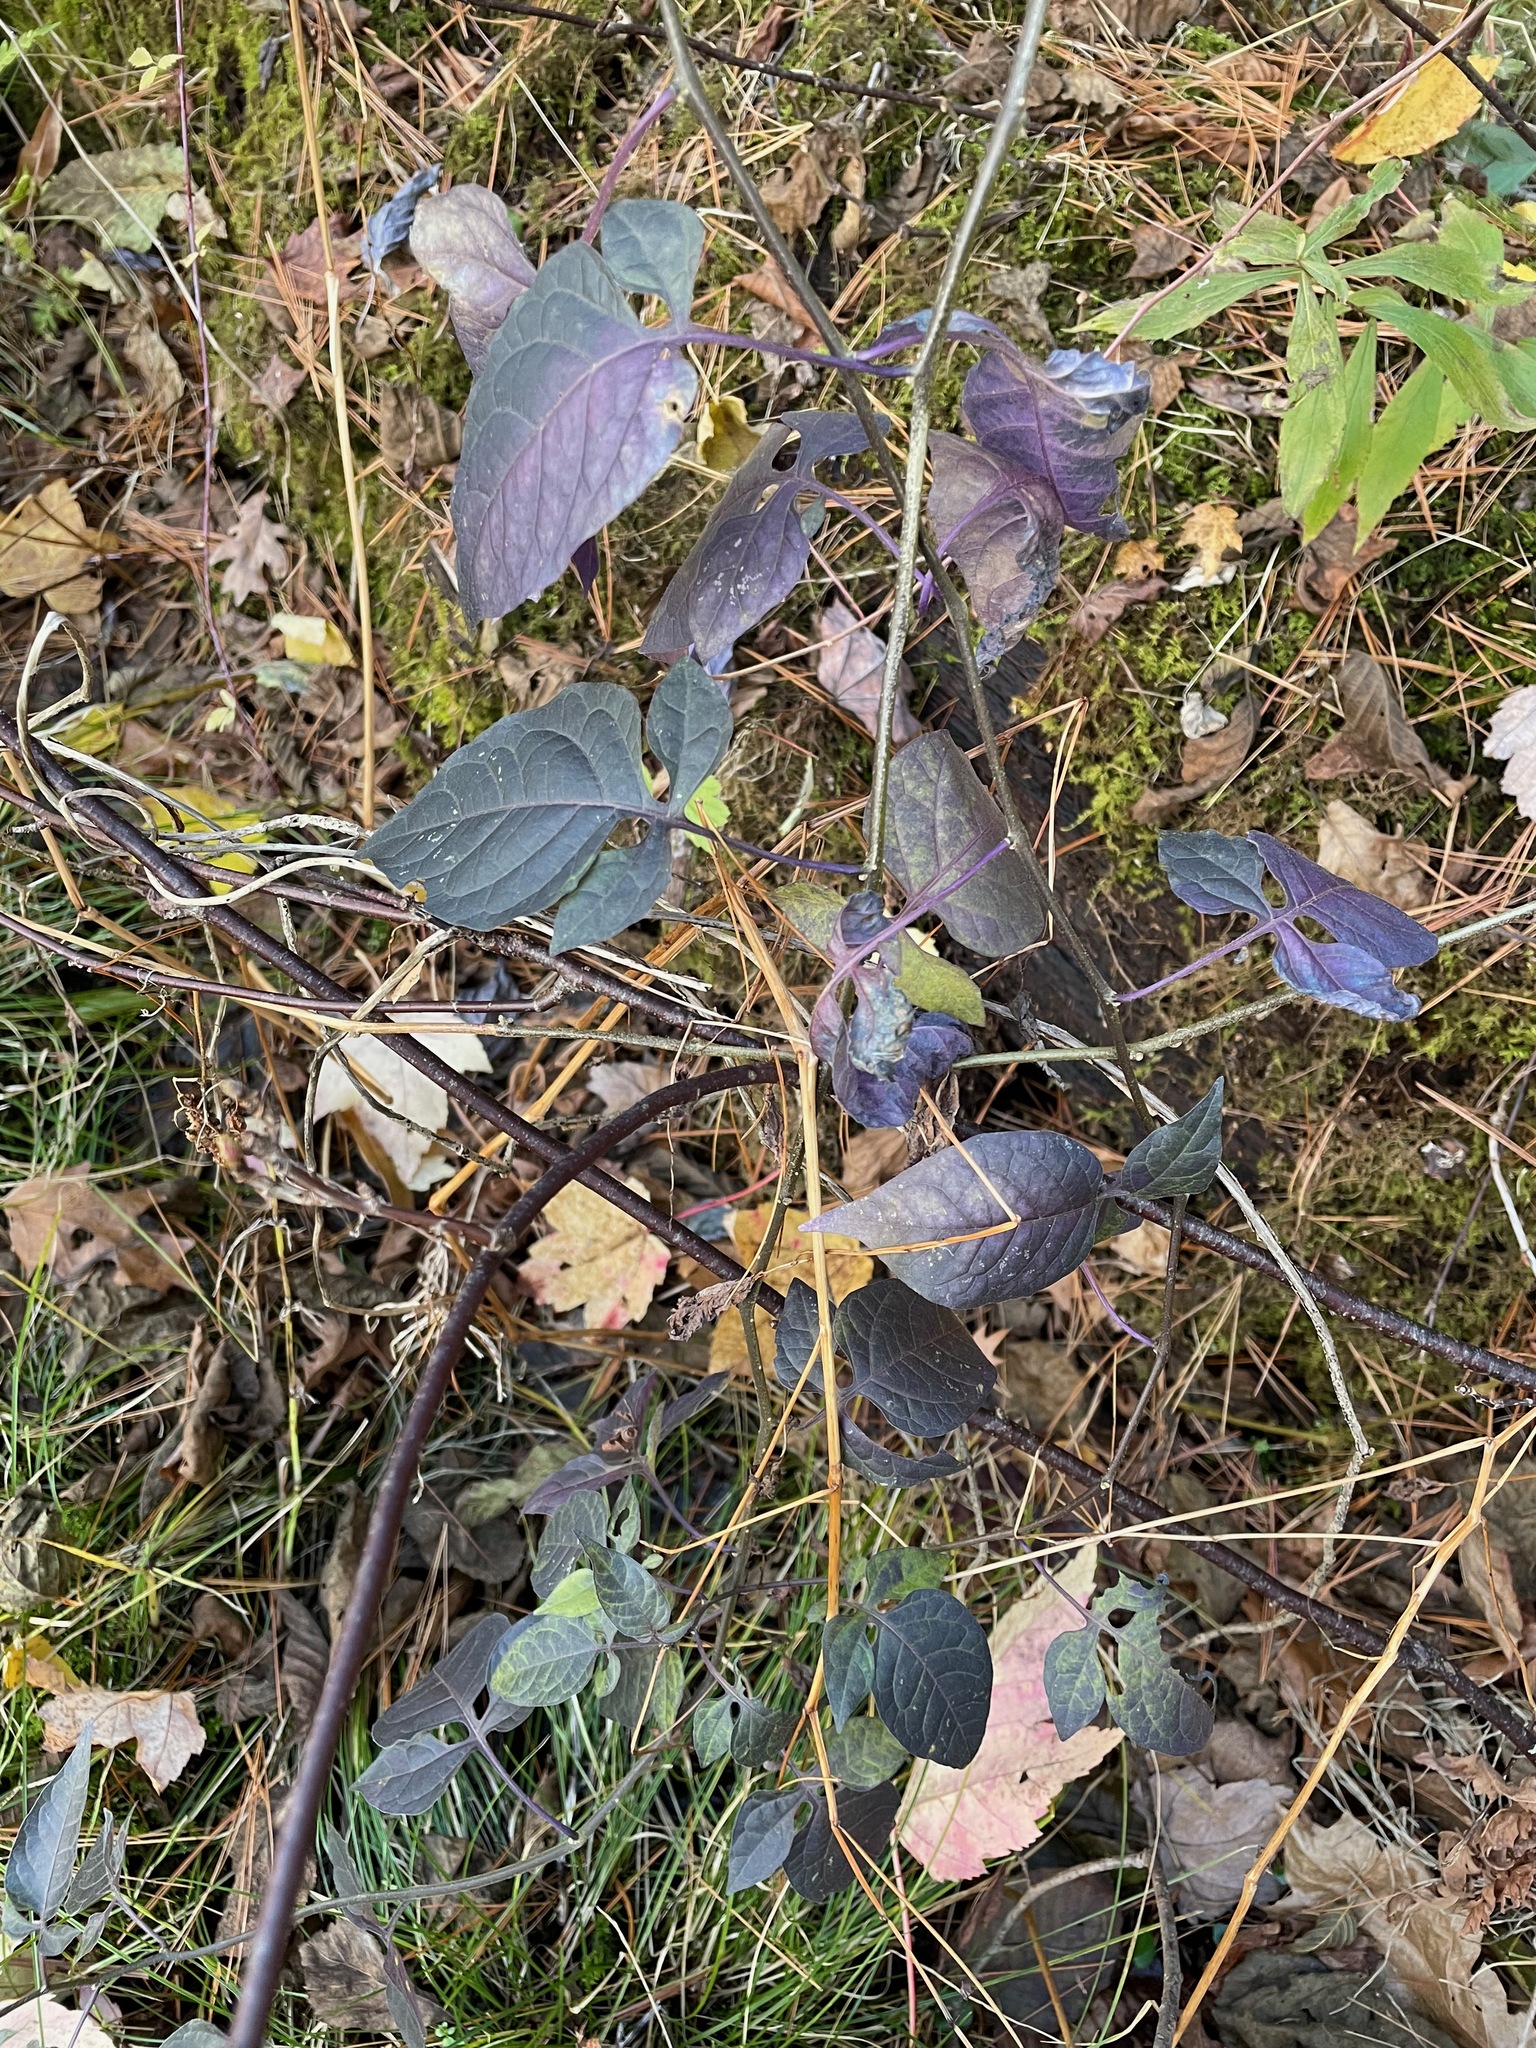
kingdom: Plantae
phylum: Tracheophyta
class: Magnoliopsida
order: Solanales
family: Solanaceae
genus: Solanum
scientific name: Solanum dulcamara
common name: Climbing nightshade
